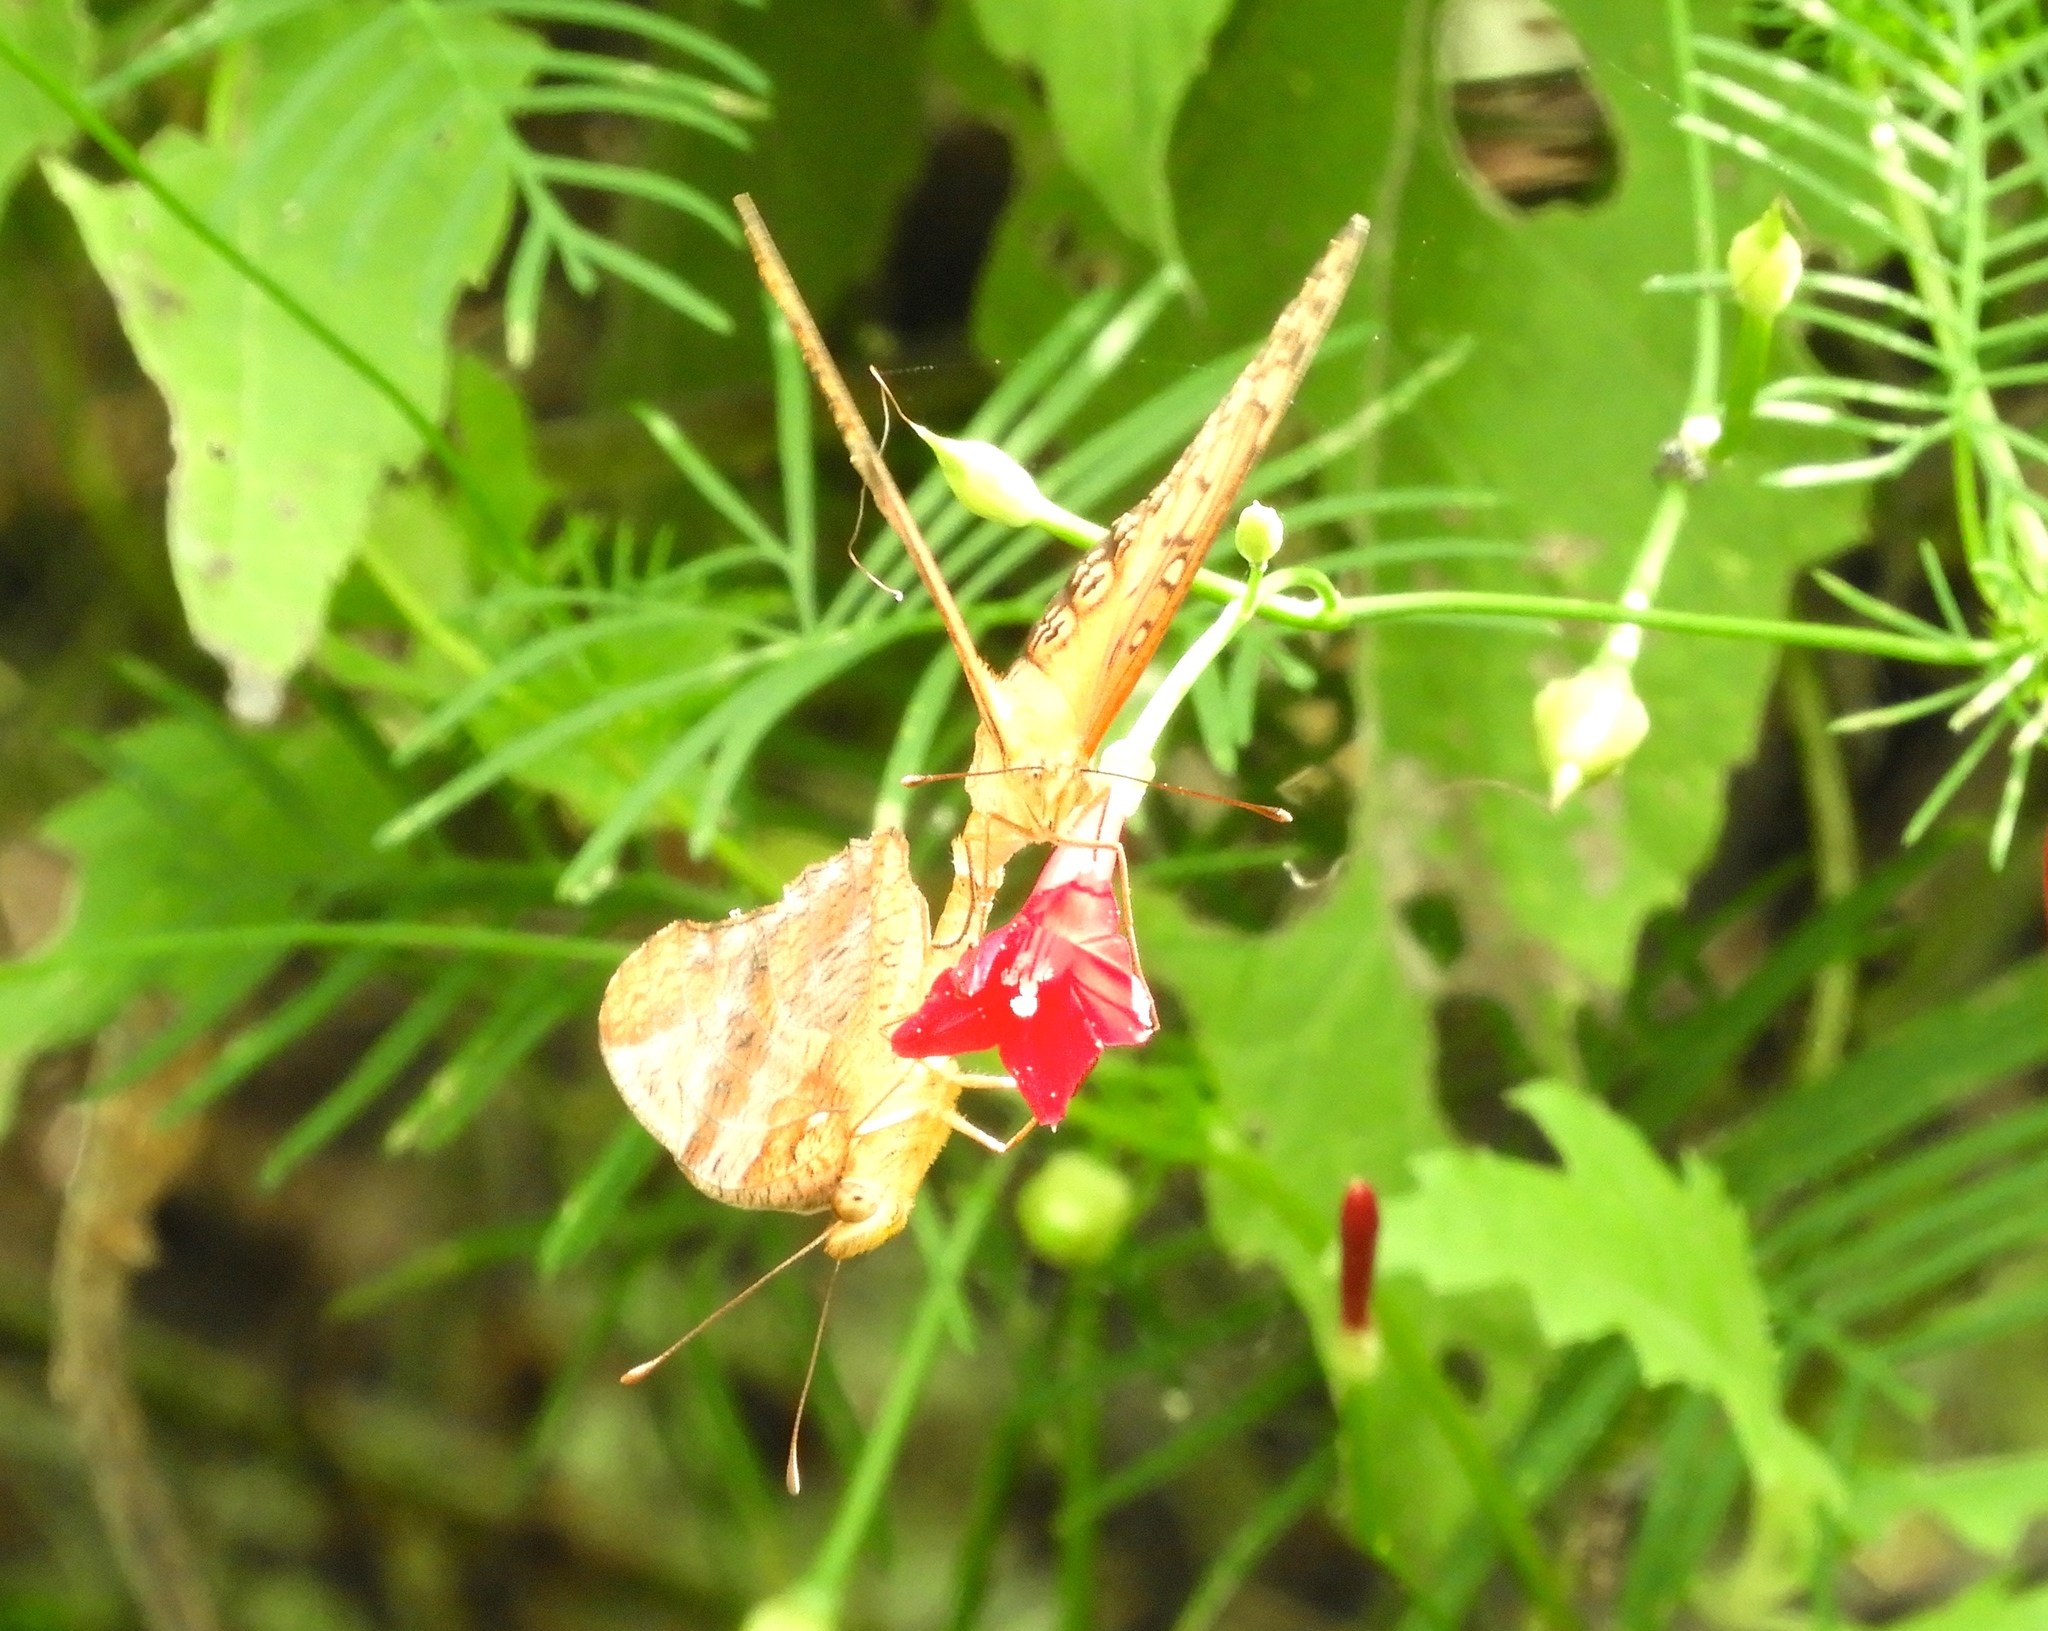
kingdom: Animalia
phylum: Arthropoda
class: Insecta
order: Lepidoptera
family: Nymphalidae
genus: Euptoieta
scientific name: Euptoieta hegesia
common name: Mexican fritillary
